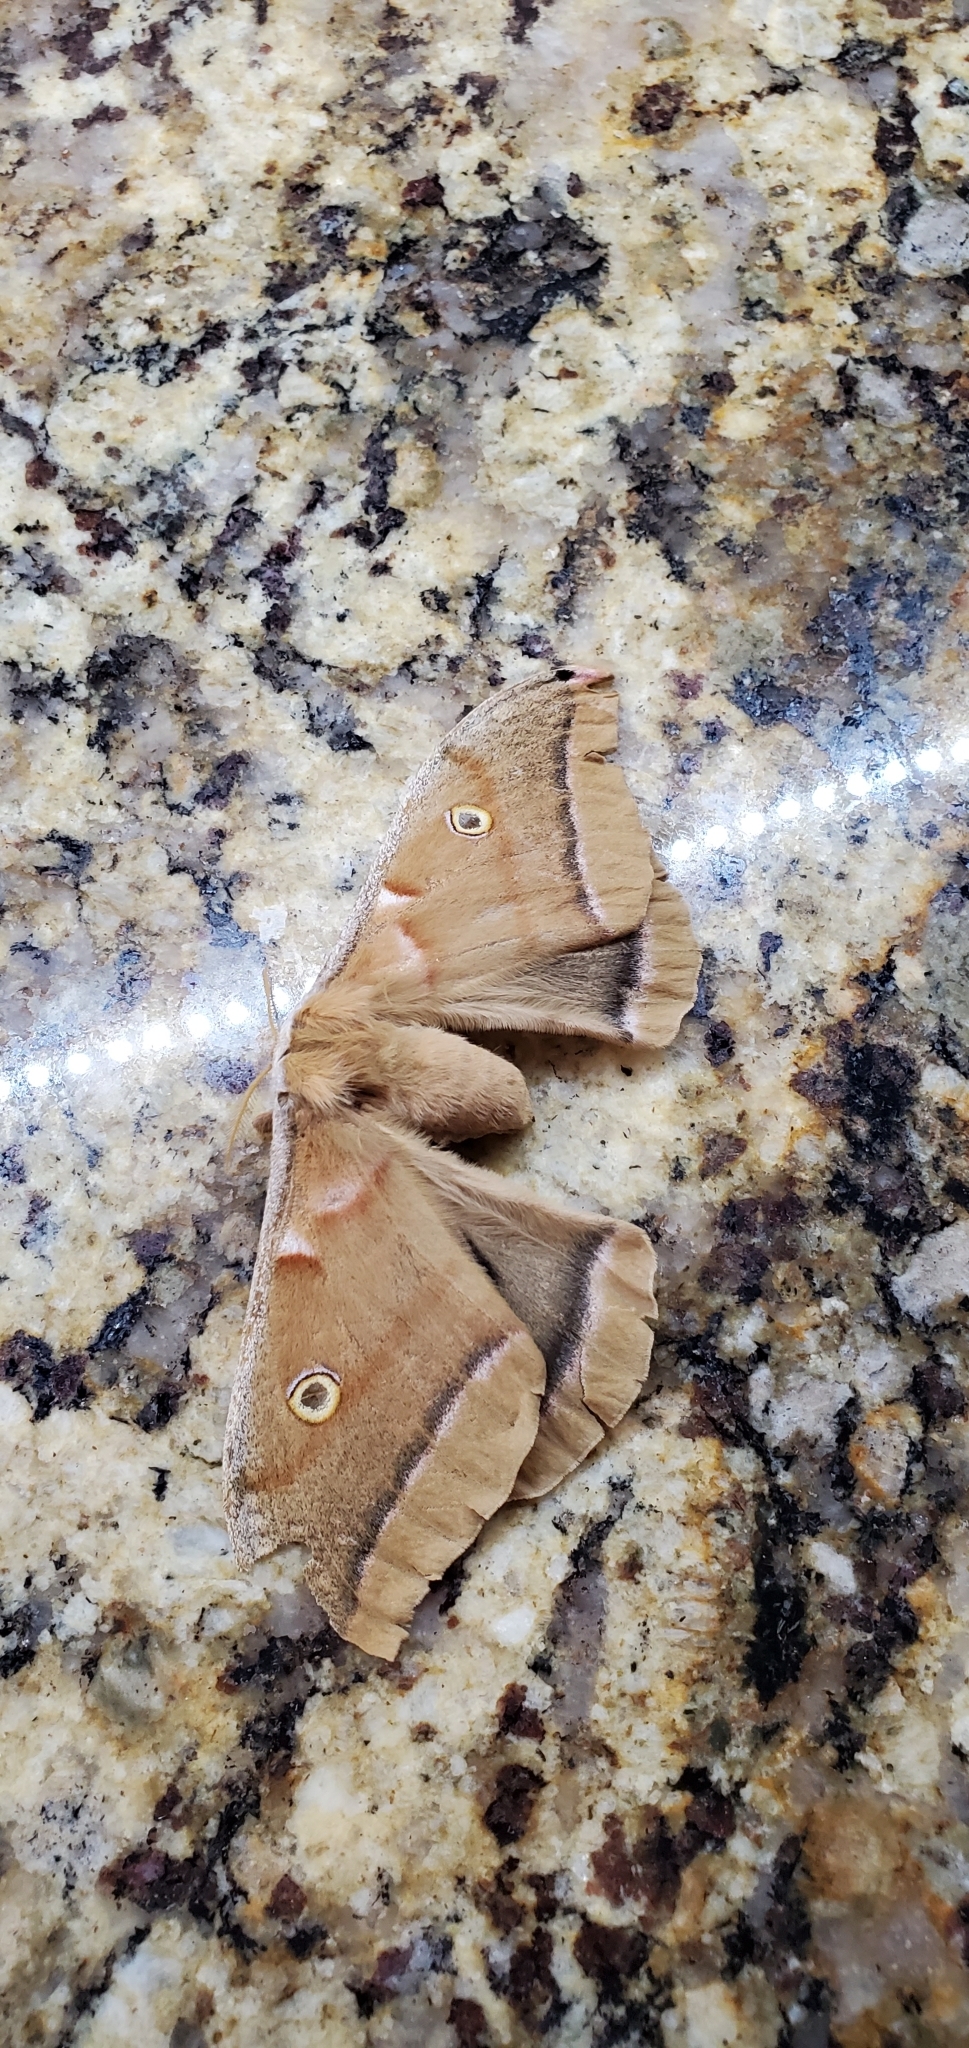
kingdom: Animalia
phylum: Arthropoda
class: Insecta
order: Lepidoptera
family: Saturniidae
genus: Antheraea
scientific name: Antheraea polyphemus
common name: Polyphemus moth
